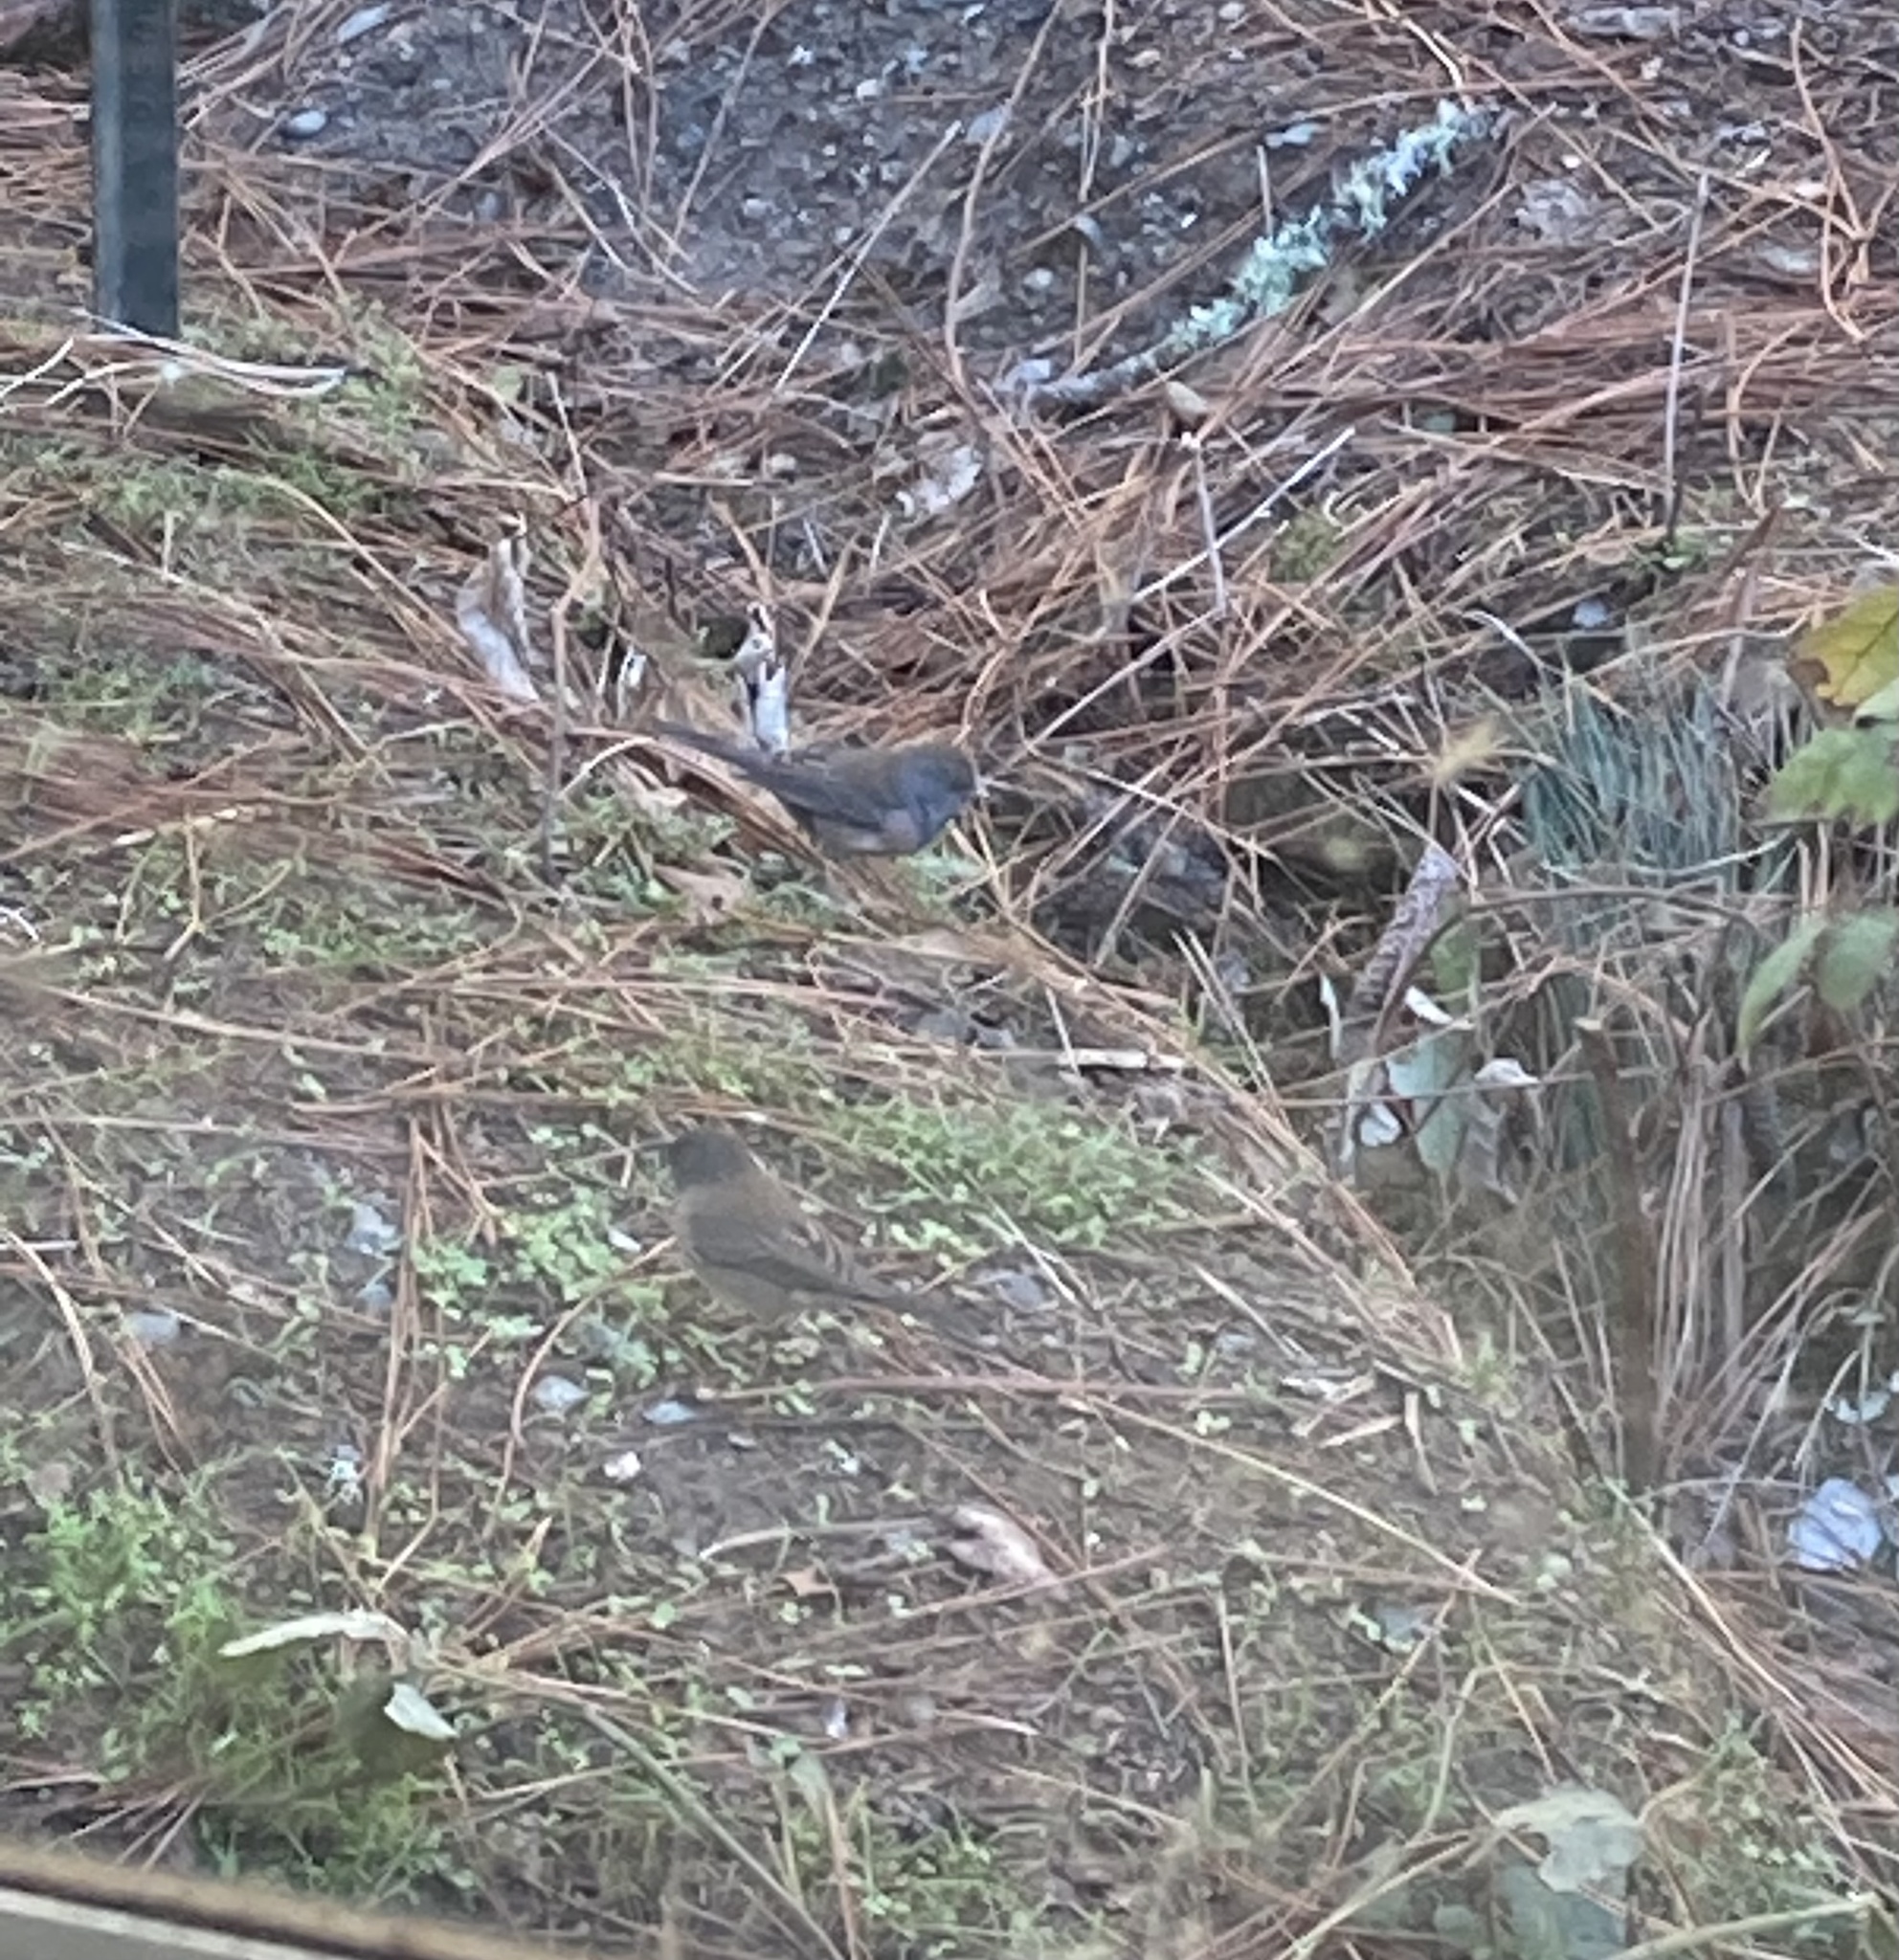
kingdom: Animalia
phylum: Chordata
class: Aves
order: Passeriformes
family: Passerellidae
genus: Junco
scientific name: Junco hyemalis
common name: Dark-eyed junco
